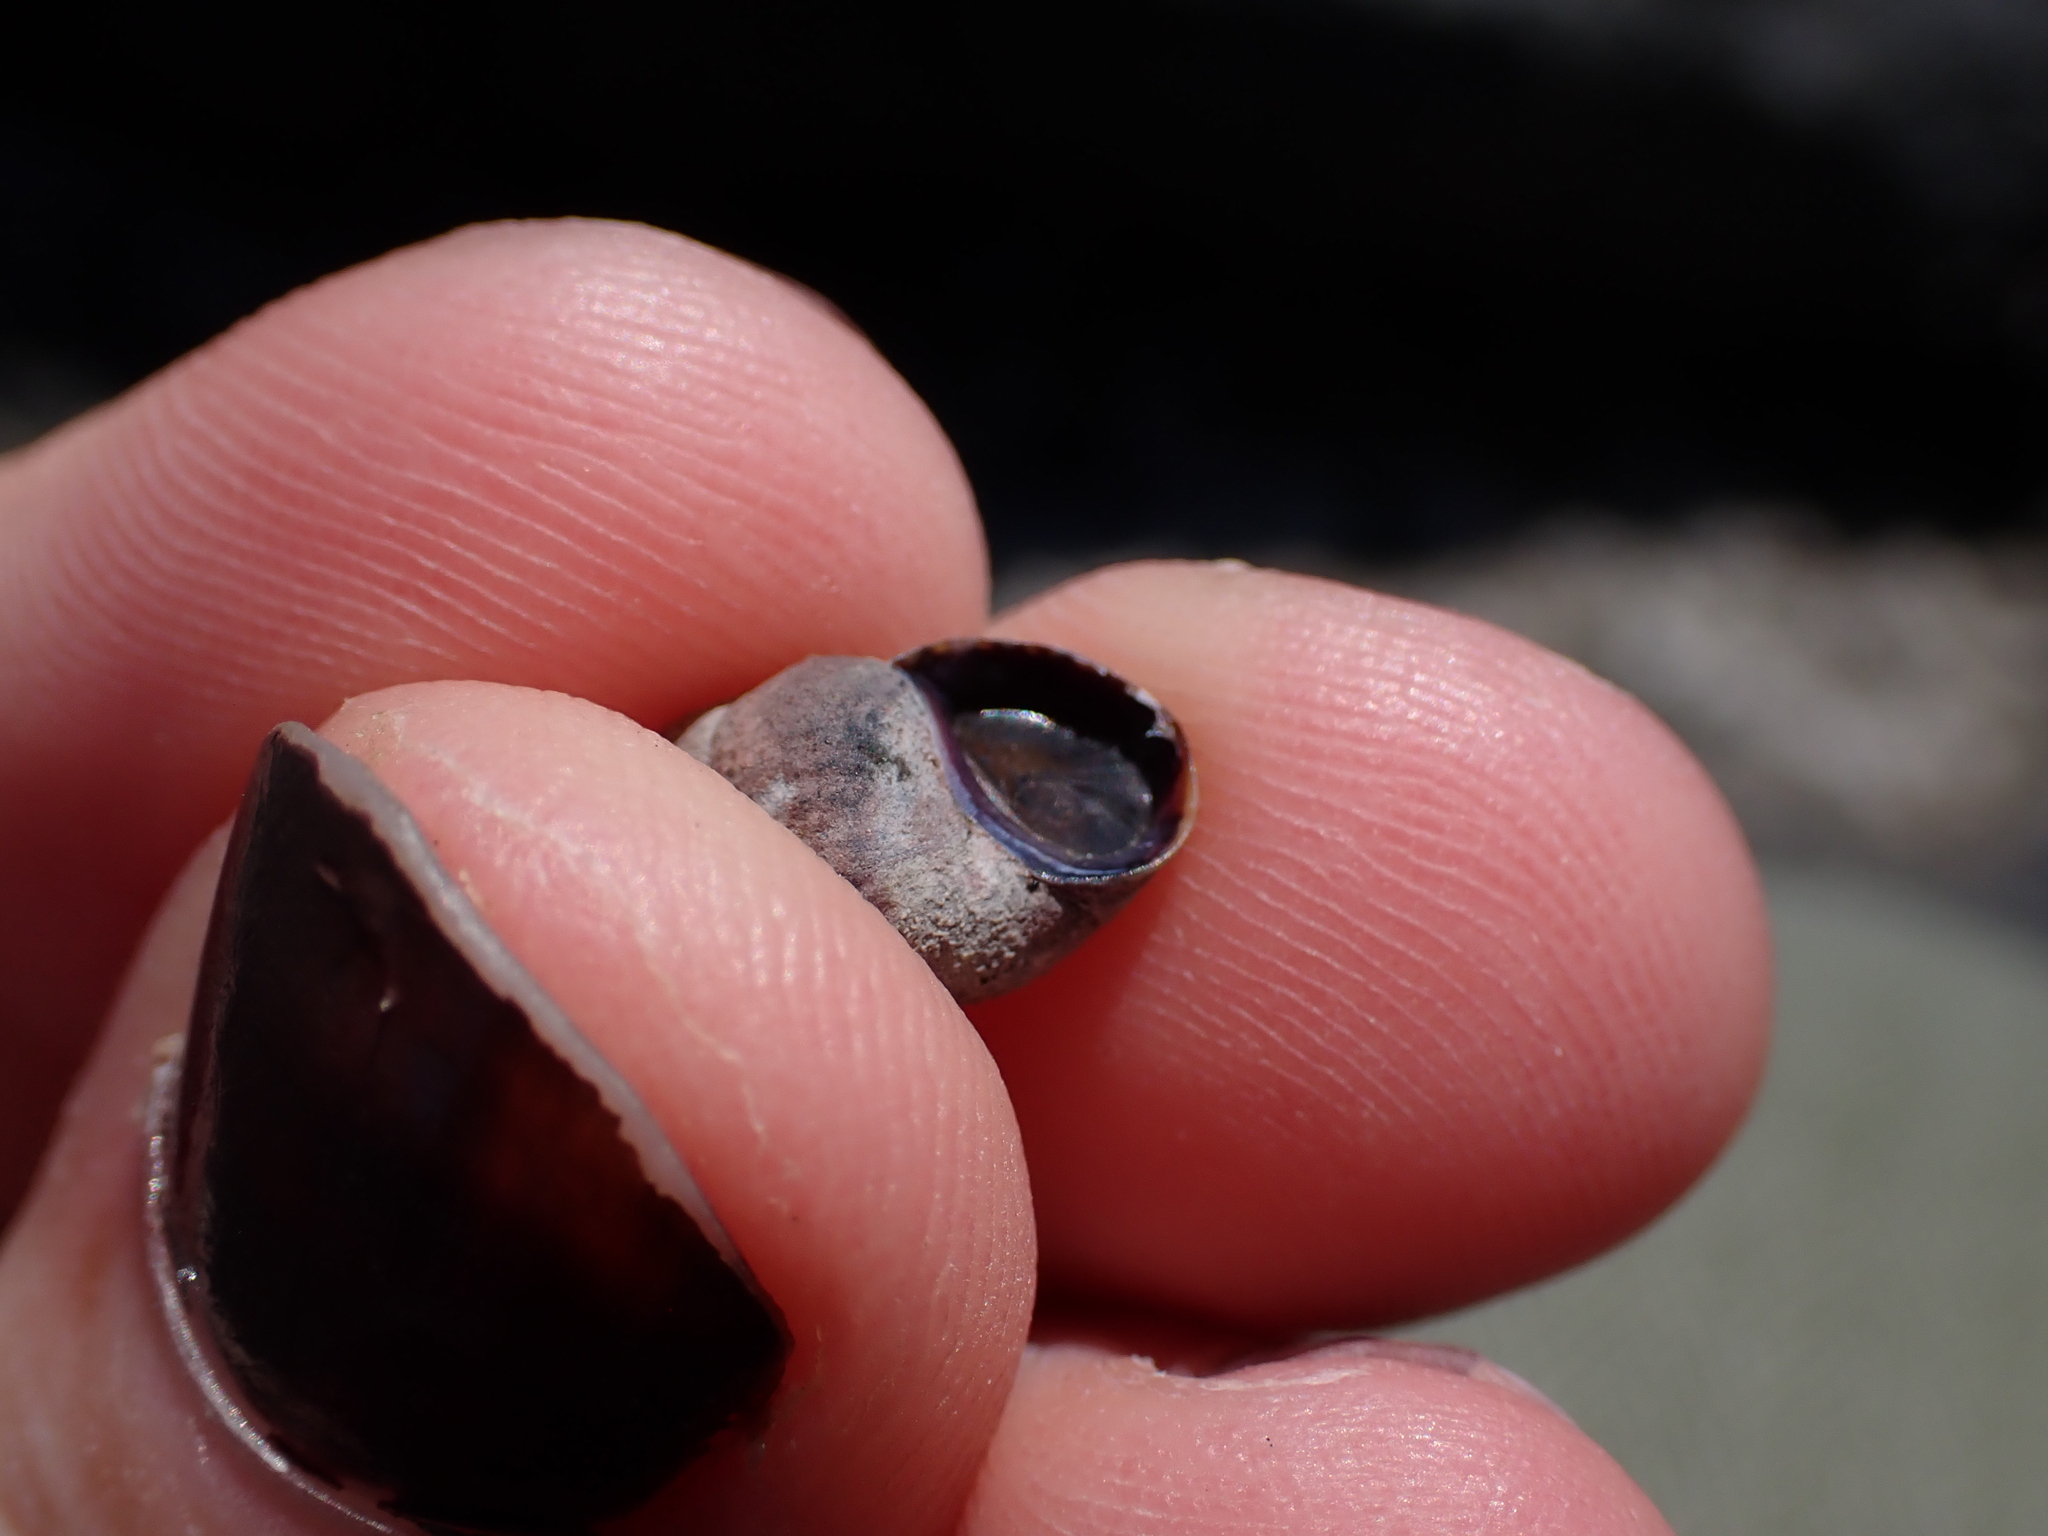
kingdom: Animalia
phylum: Mollusca
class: Gastropoda
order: Littorinimorpha
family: Littorinidae
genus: Littorina
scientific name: Littorina scutulata
